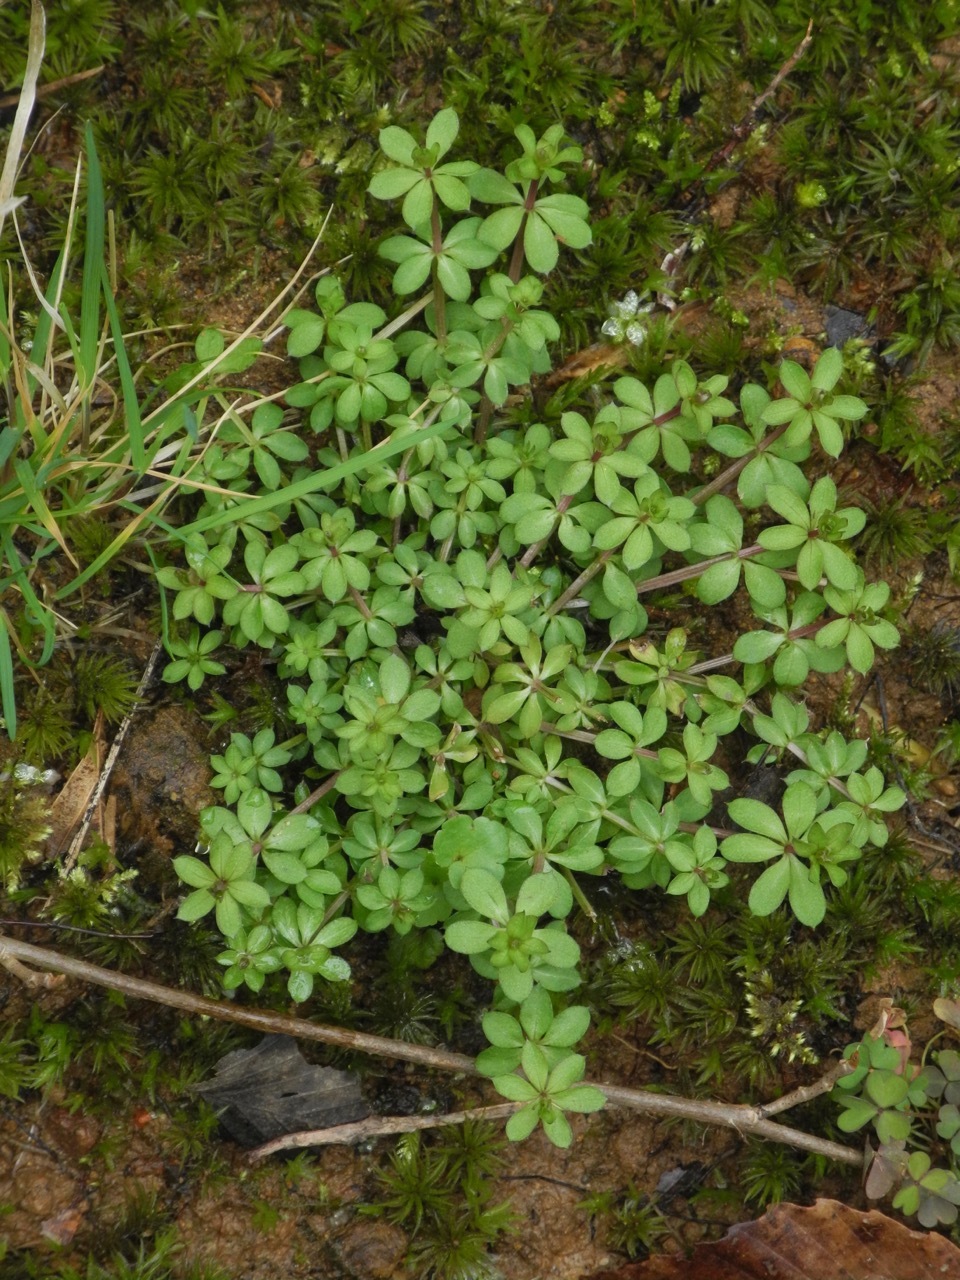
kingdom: Plantae
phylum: Tracheophyta
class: Magnoliopsida
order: Gentianales
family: Rubiaceae
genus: Galium
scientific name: Galium triflorum
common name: Fragrant bedstraw
